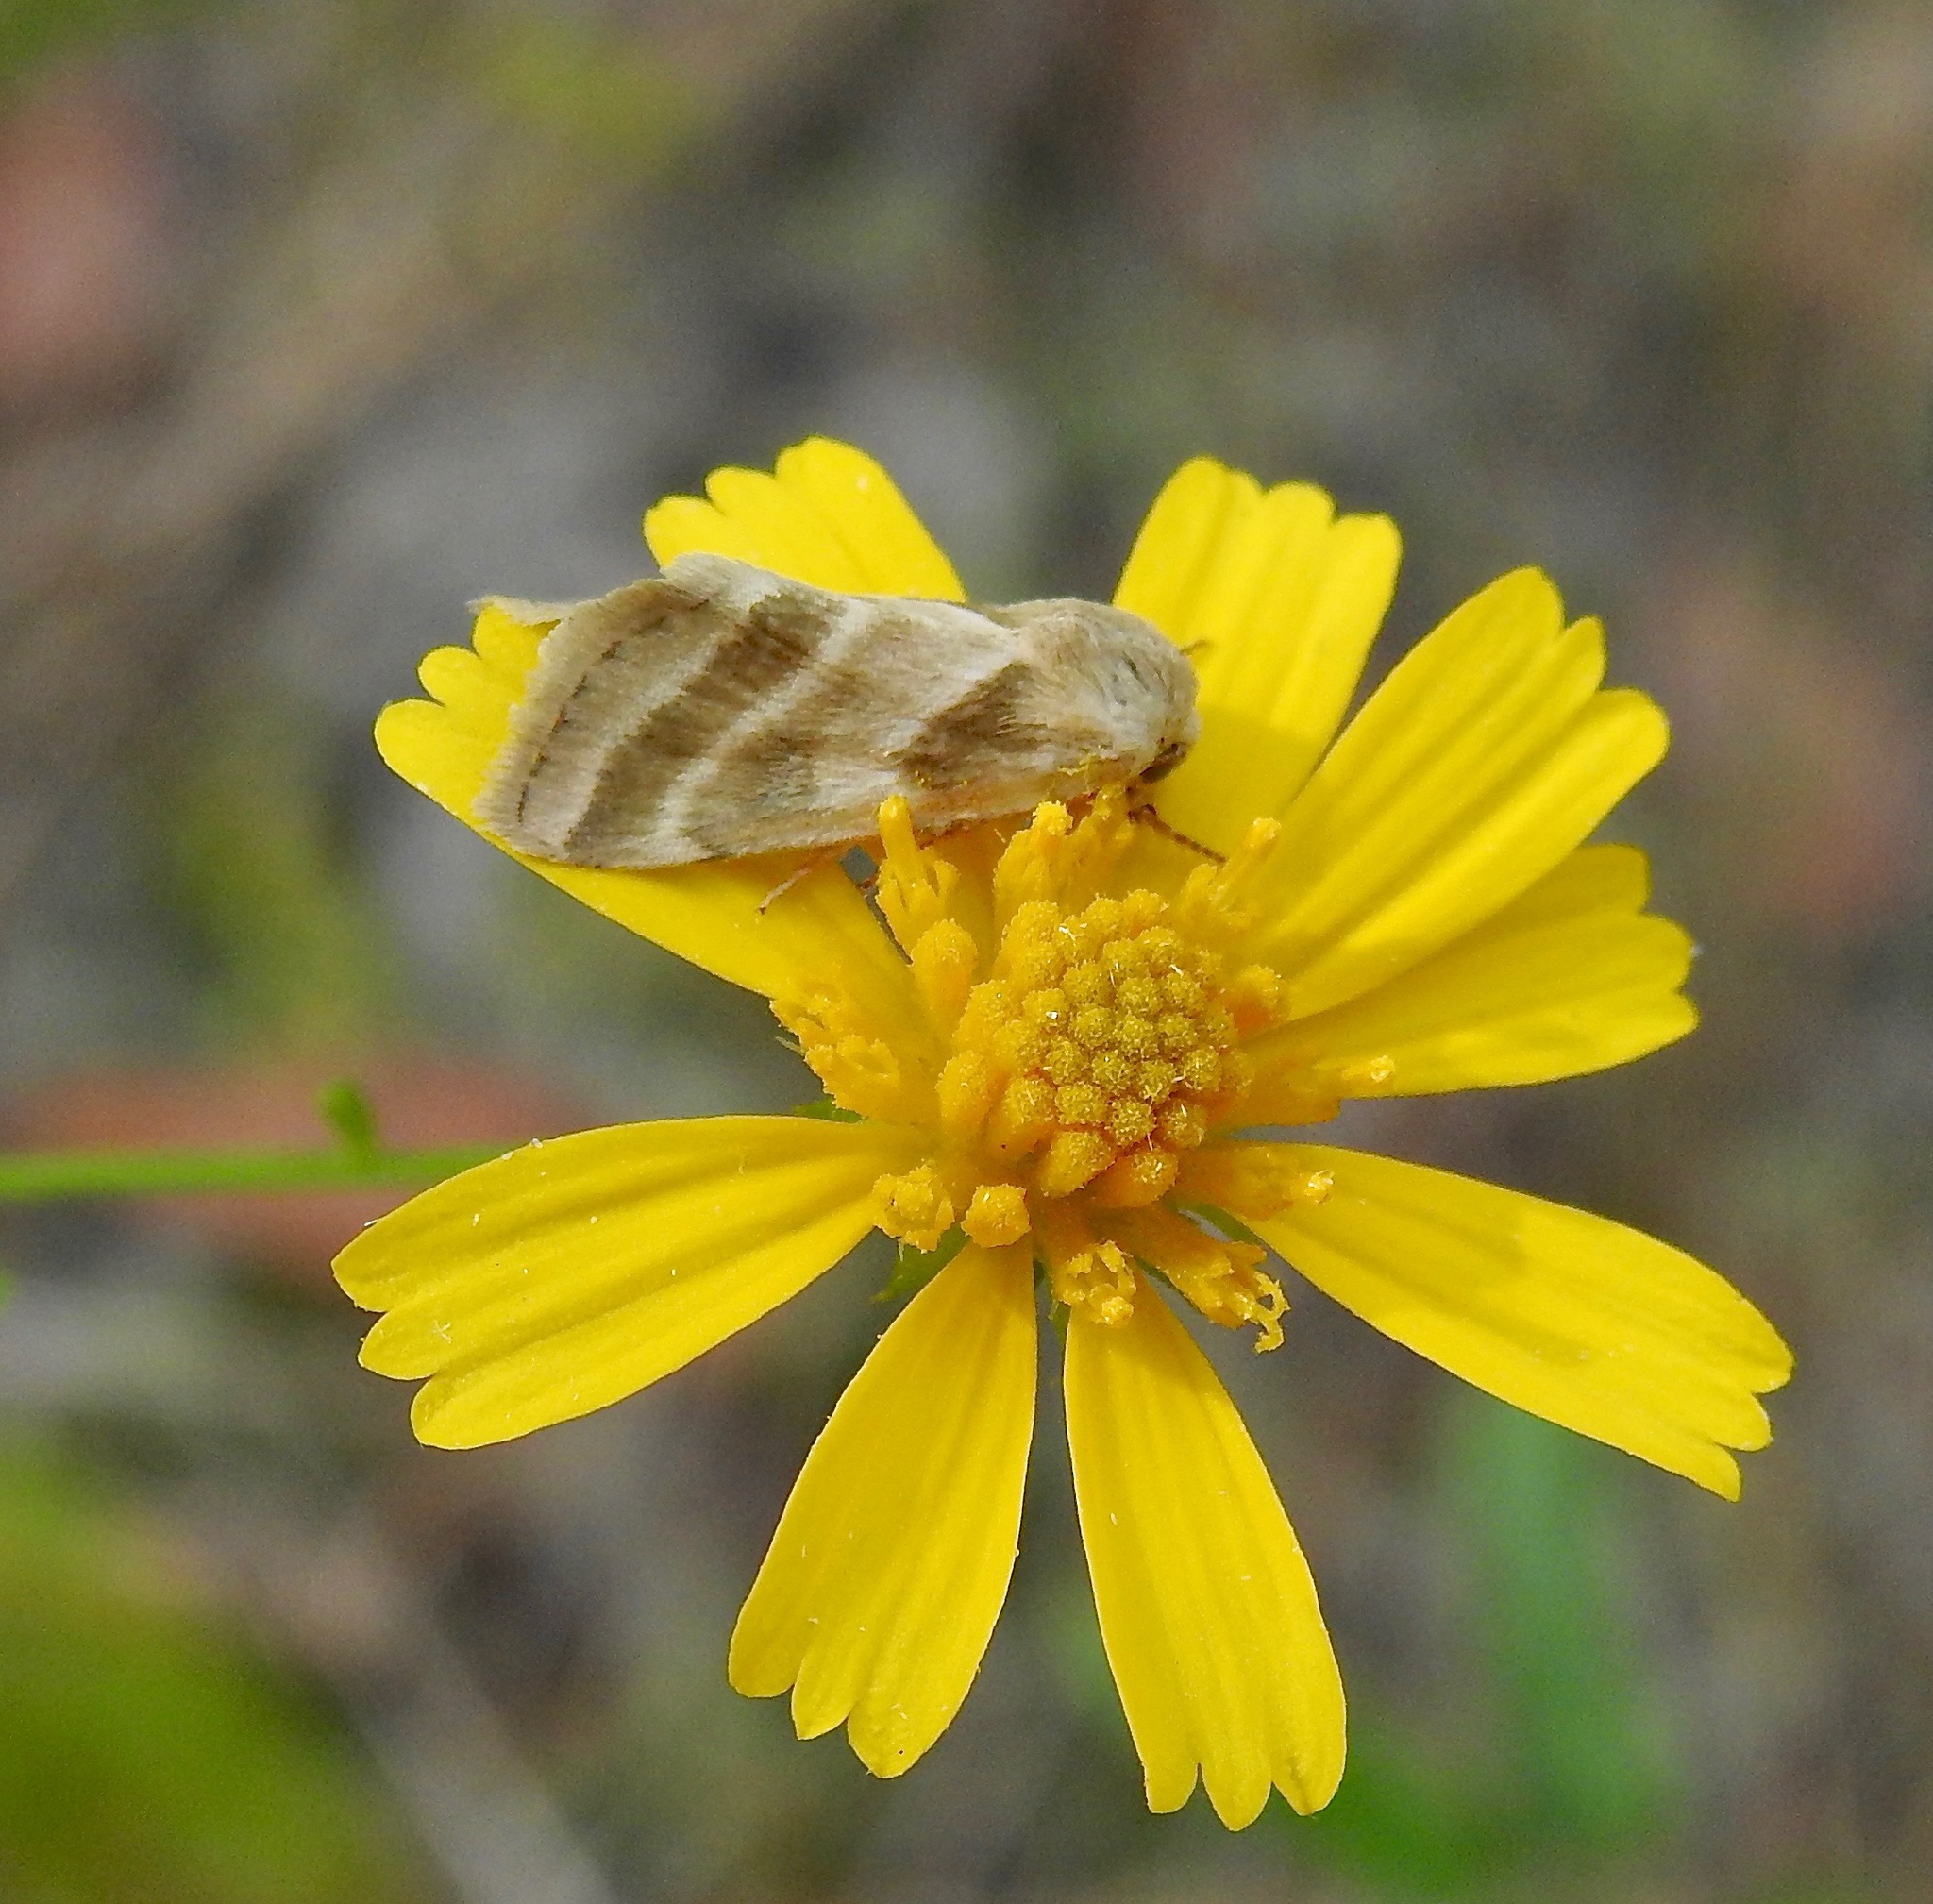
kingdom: Animalia
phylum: Arthropoda
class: Insecta
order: Lepidoptera
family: Noctuidae
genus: Schinia
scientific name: Schinia trifascia
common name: Three-lined flower moth
